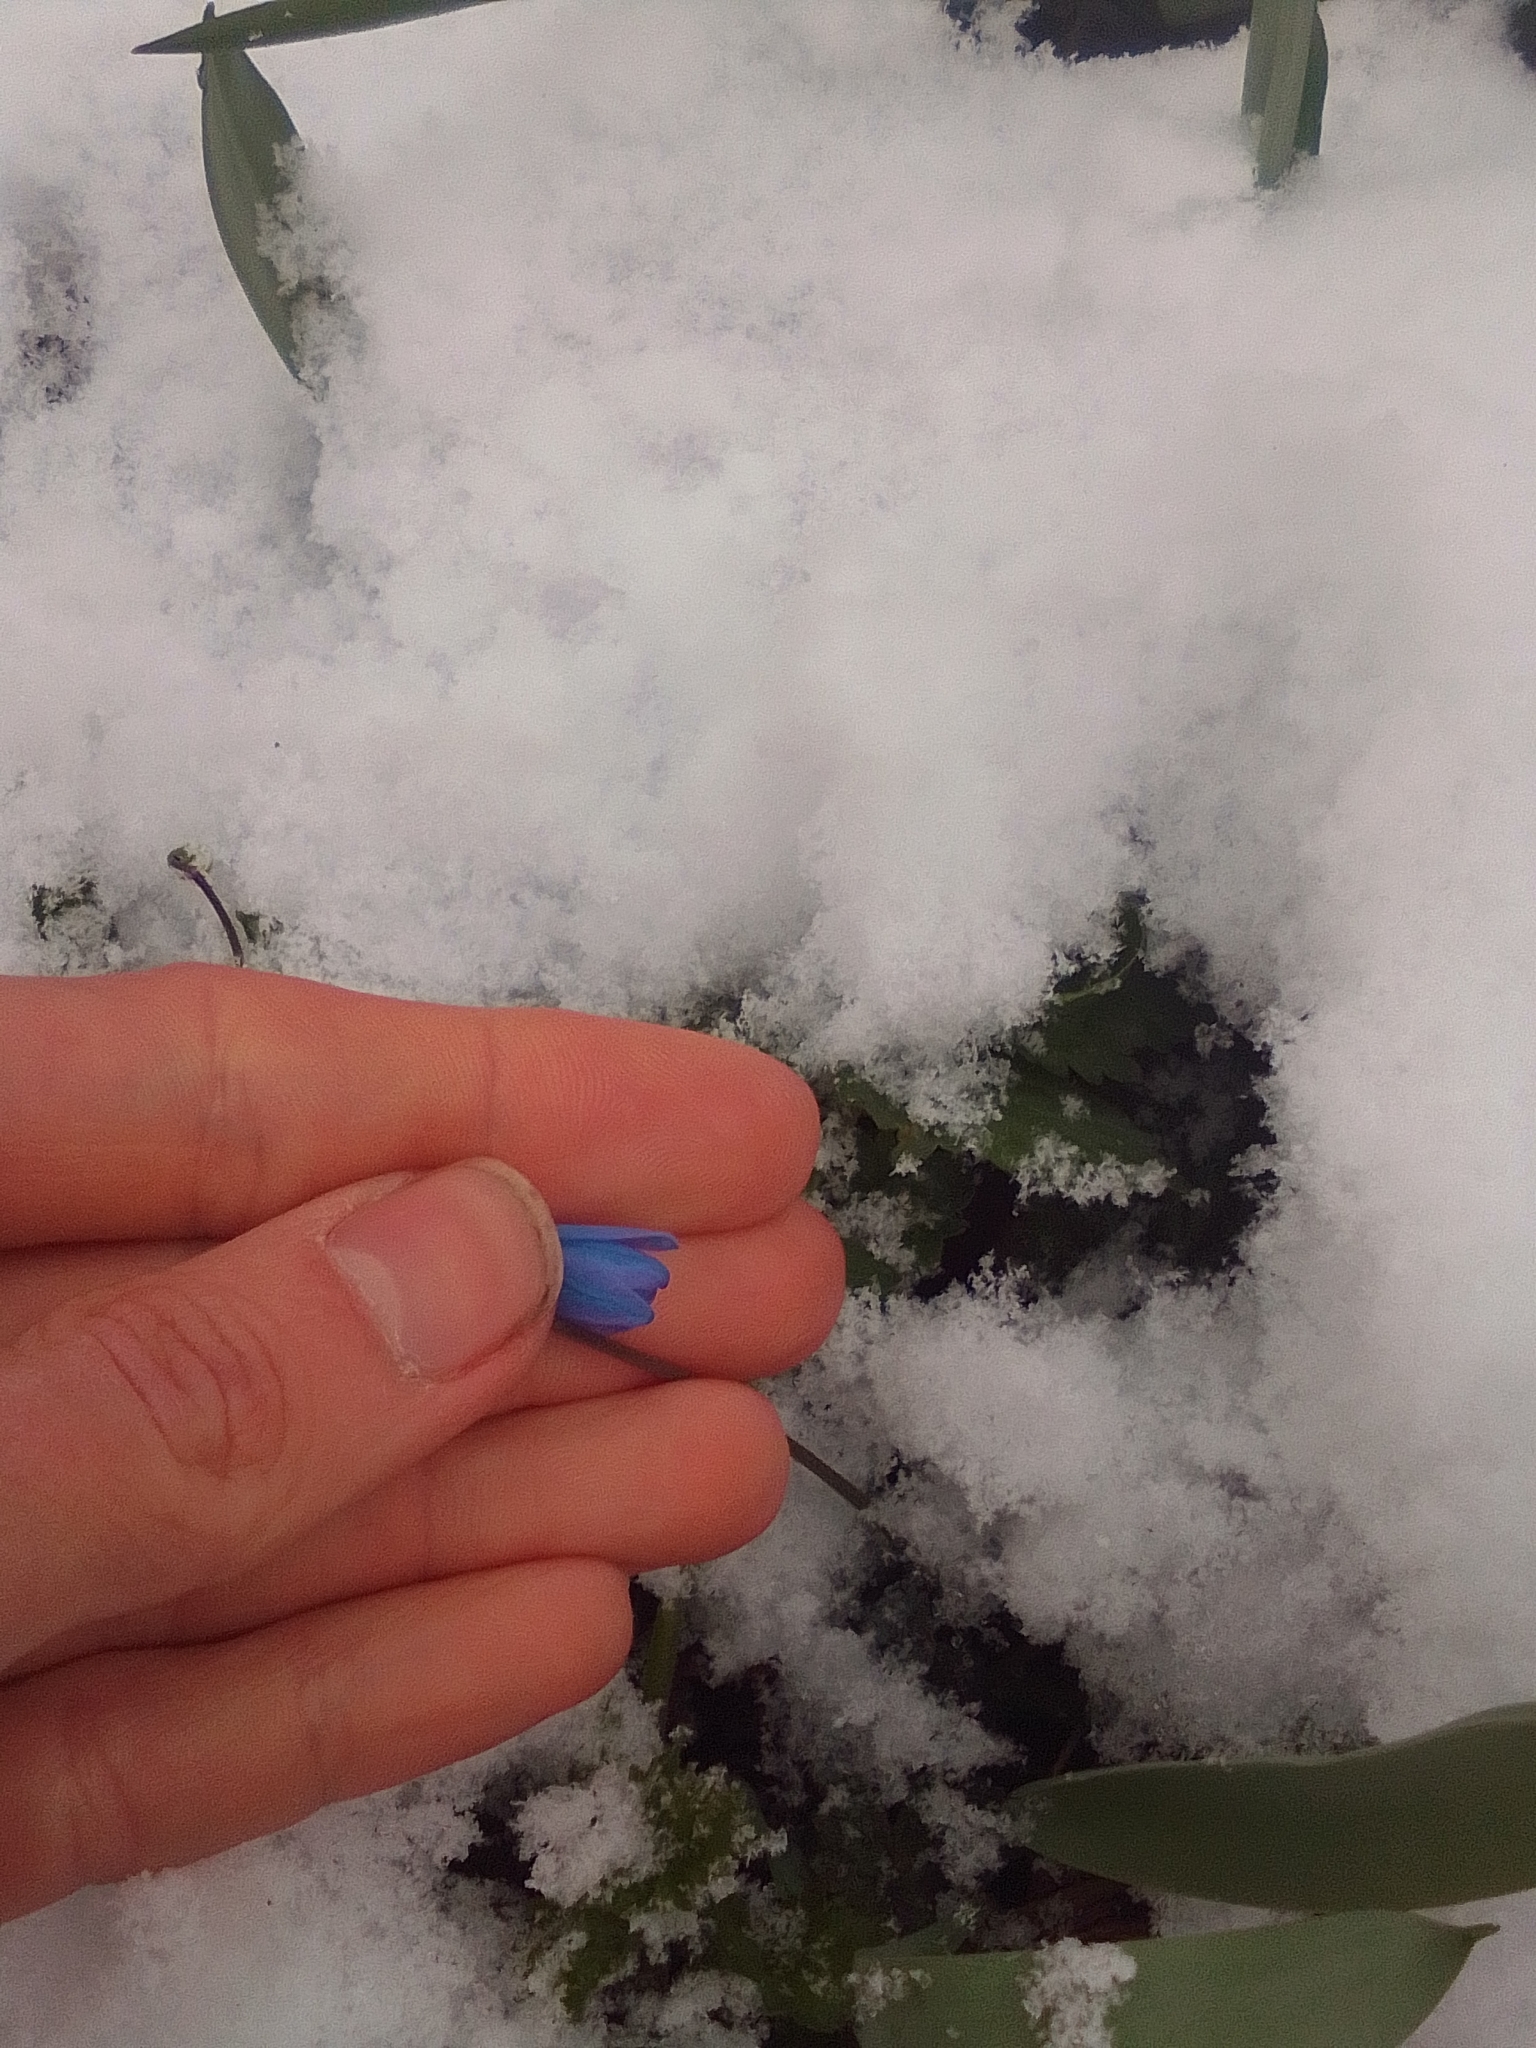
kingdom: Plantae
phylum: Tracheophyta
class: Liliopsida
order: Asparagales
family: Asparagaceae
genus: Scilla
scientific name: Scilla siberica
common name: Siberian squill
